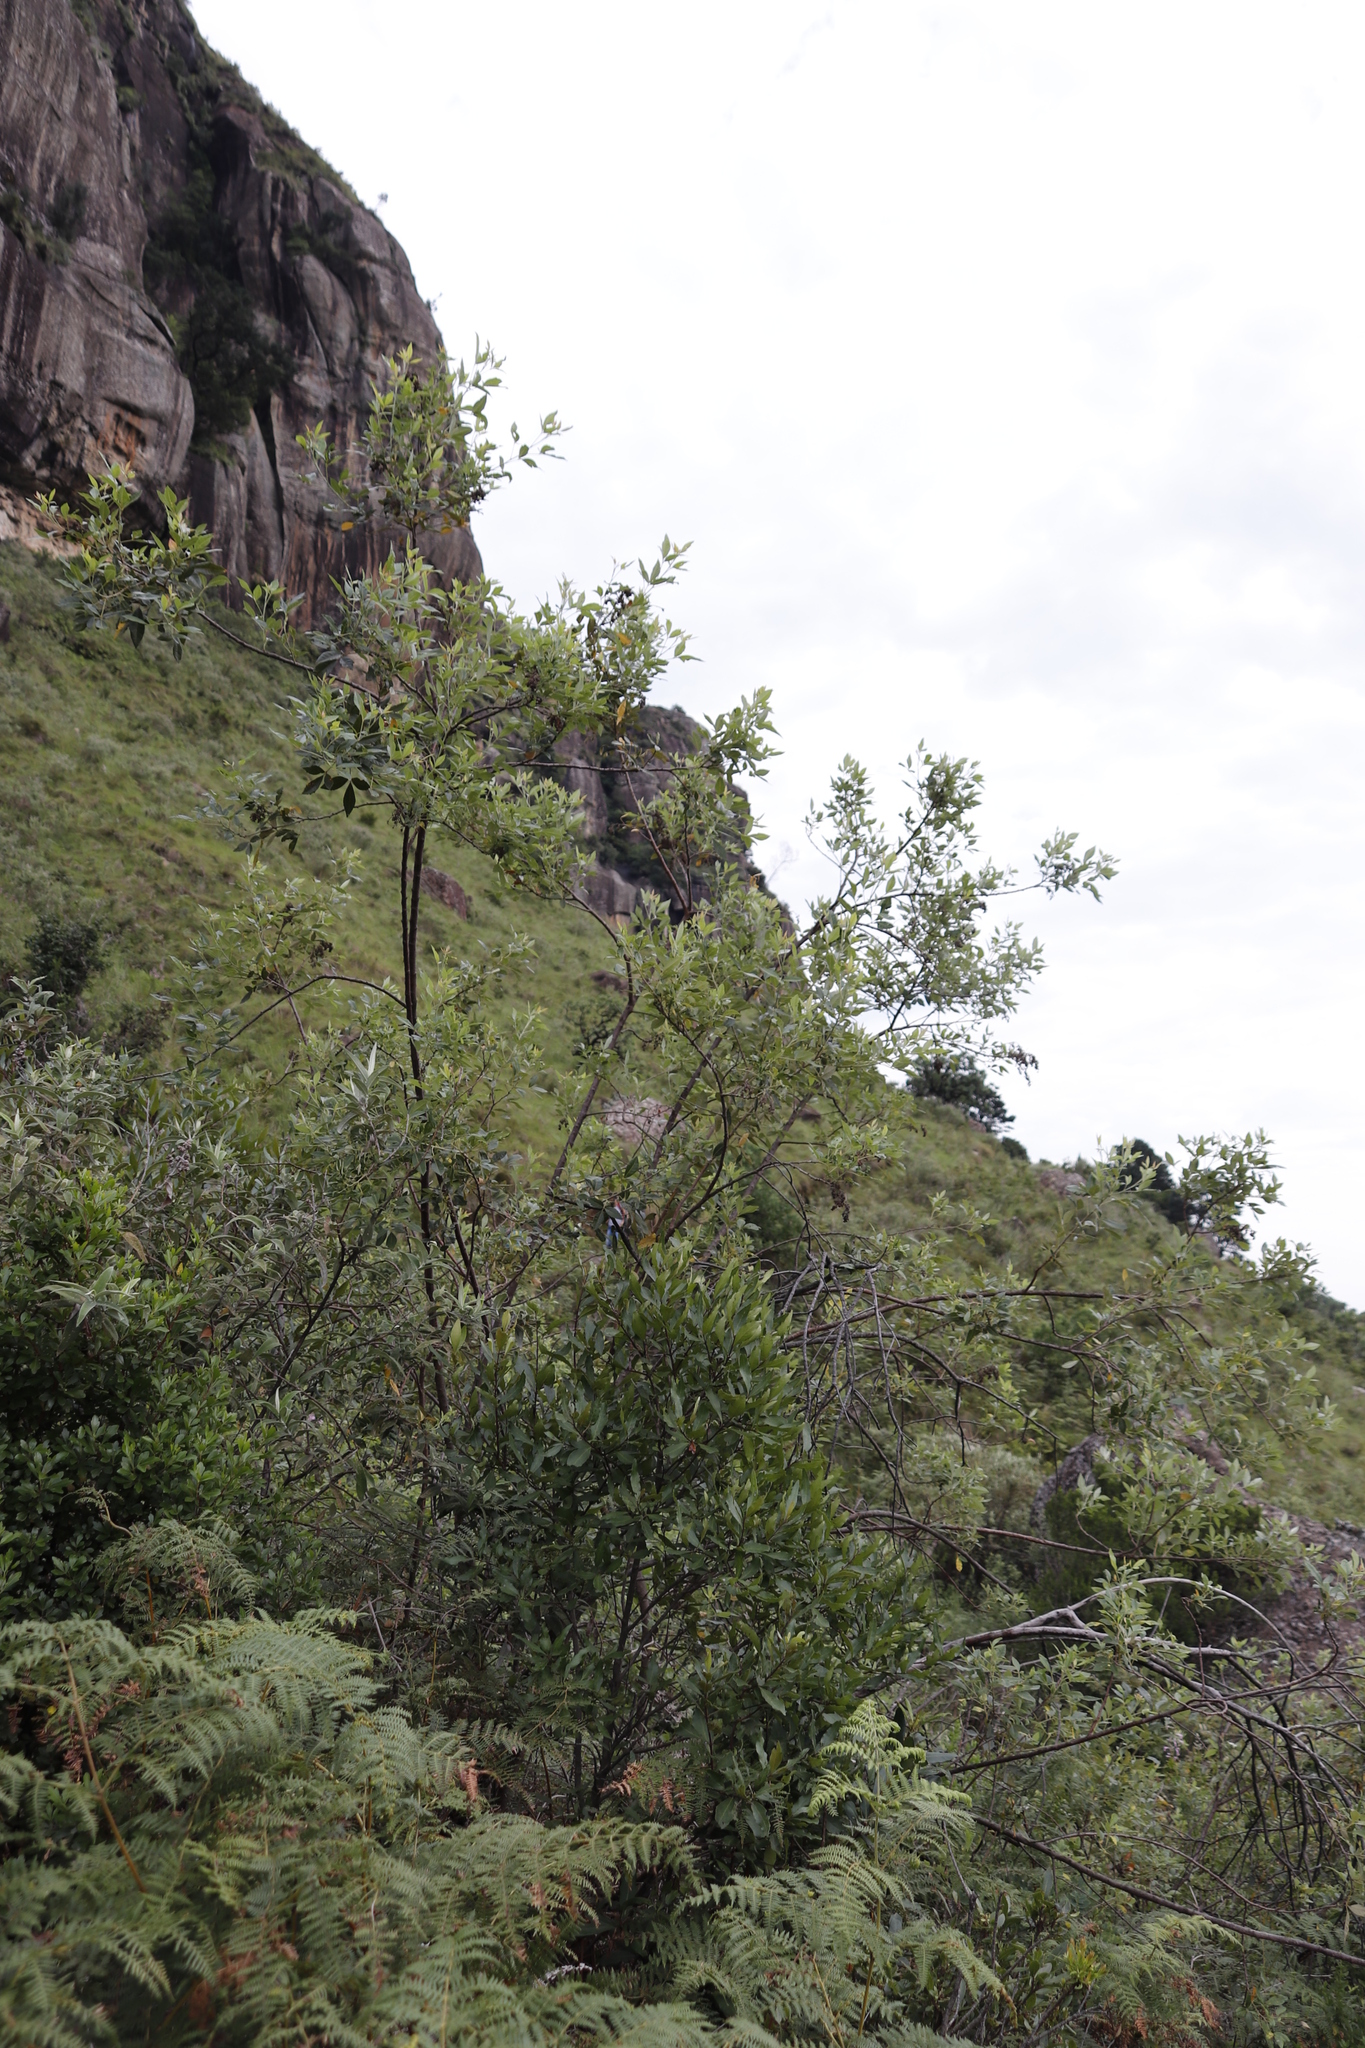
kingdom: Plantae
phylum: Tracheophyta
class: Magnoliopsida
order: Sapindales
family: Anacardiaceae
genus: Searsia
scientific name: Searsia tomentosa
